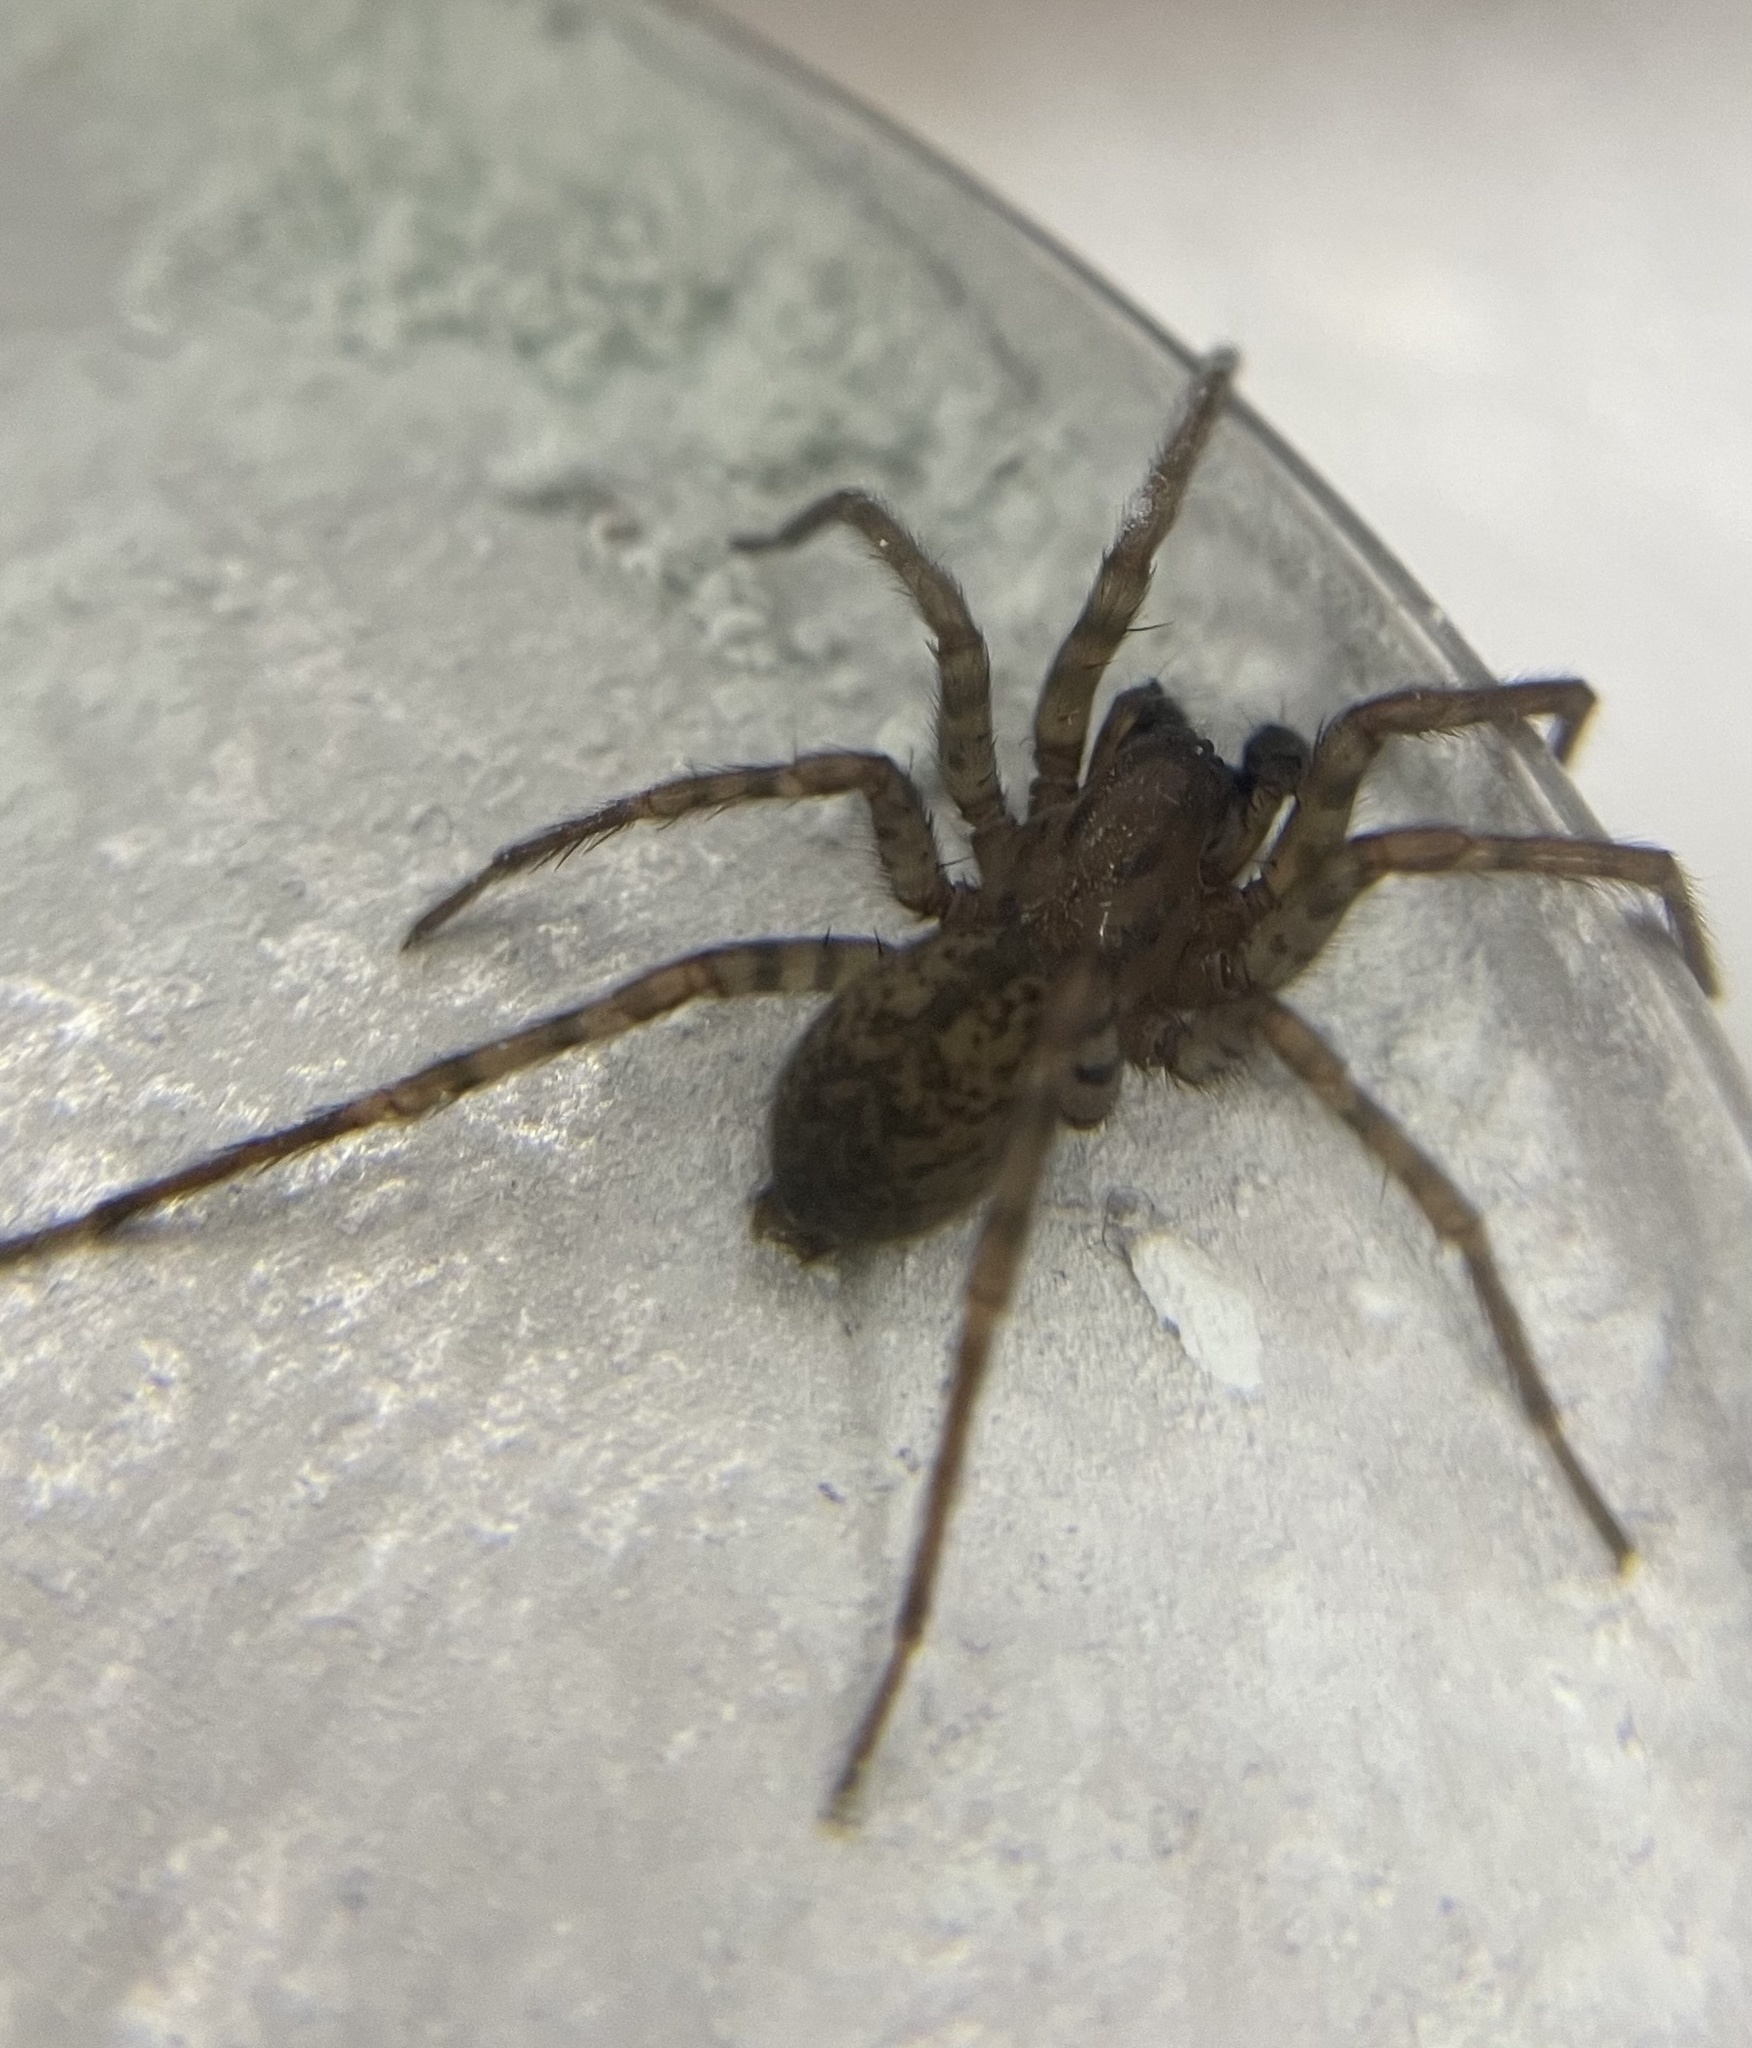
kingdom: Animalia
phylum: Arthropoda
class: Arachnida
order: Araneae
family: Agelenidae
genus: Coras
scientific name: Coras
